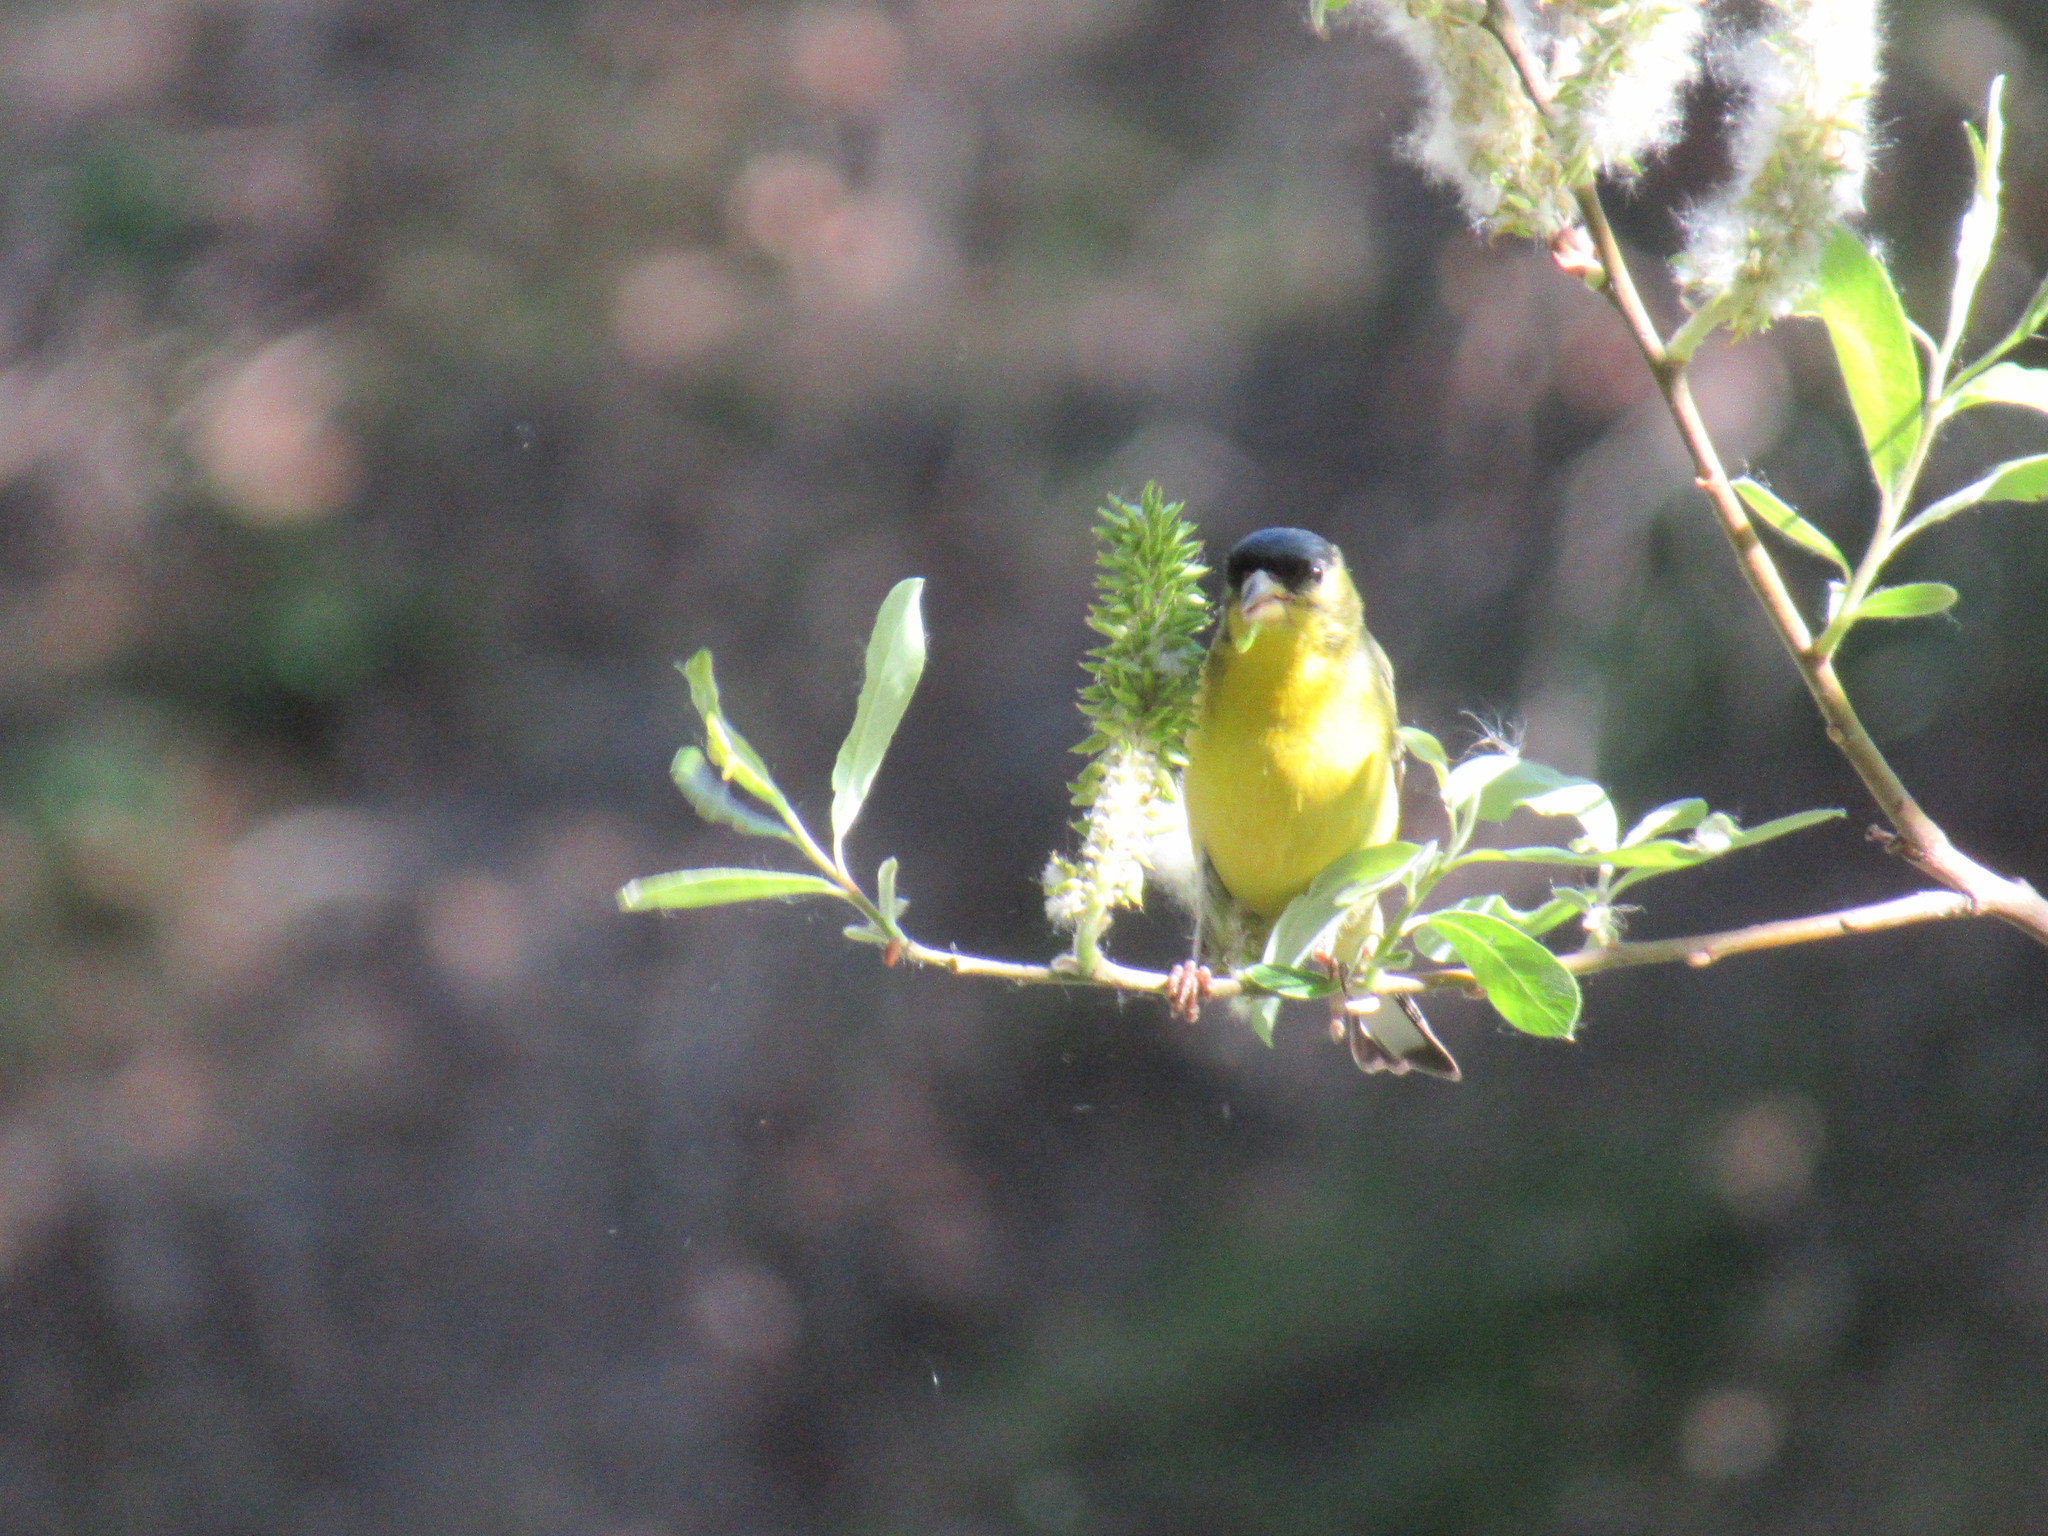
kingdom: Animalia
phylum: Chordata
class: Aves
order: Passeriformes
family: Fringillidae
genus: Spinus
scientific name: Spinus psaltria
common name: Lesser goldfinch
